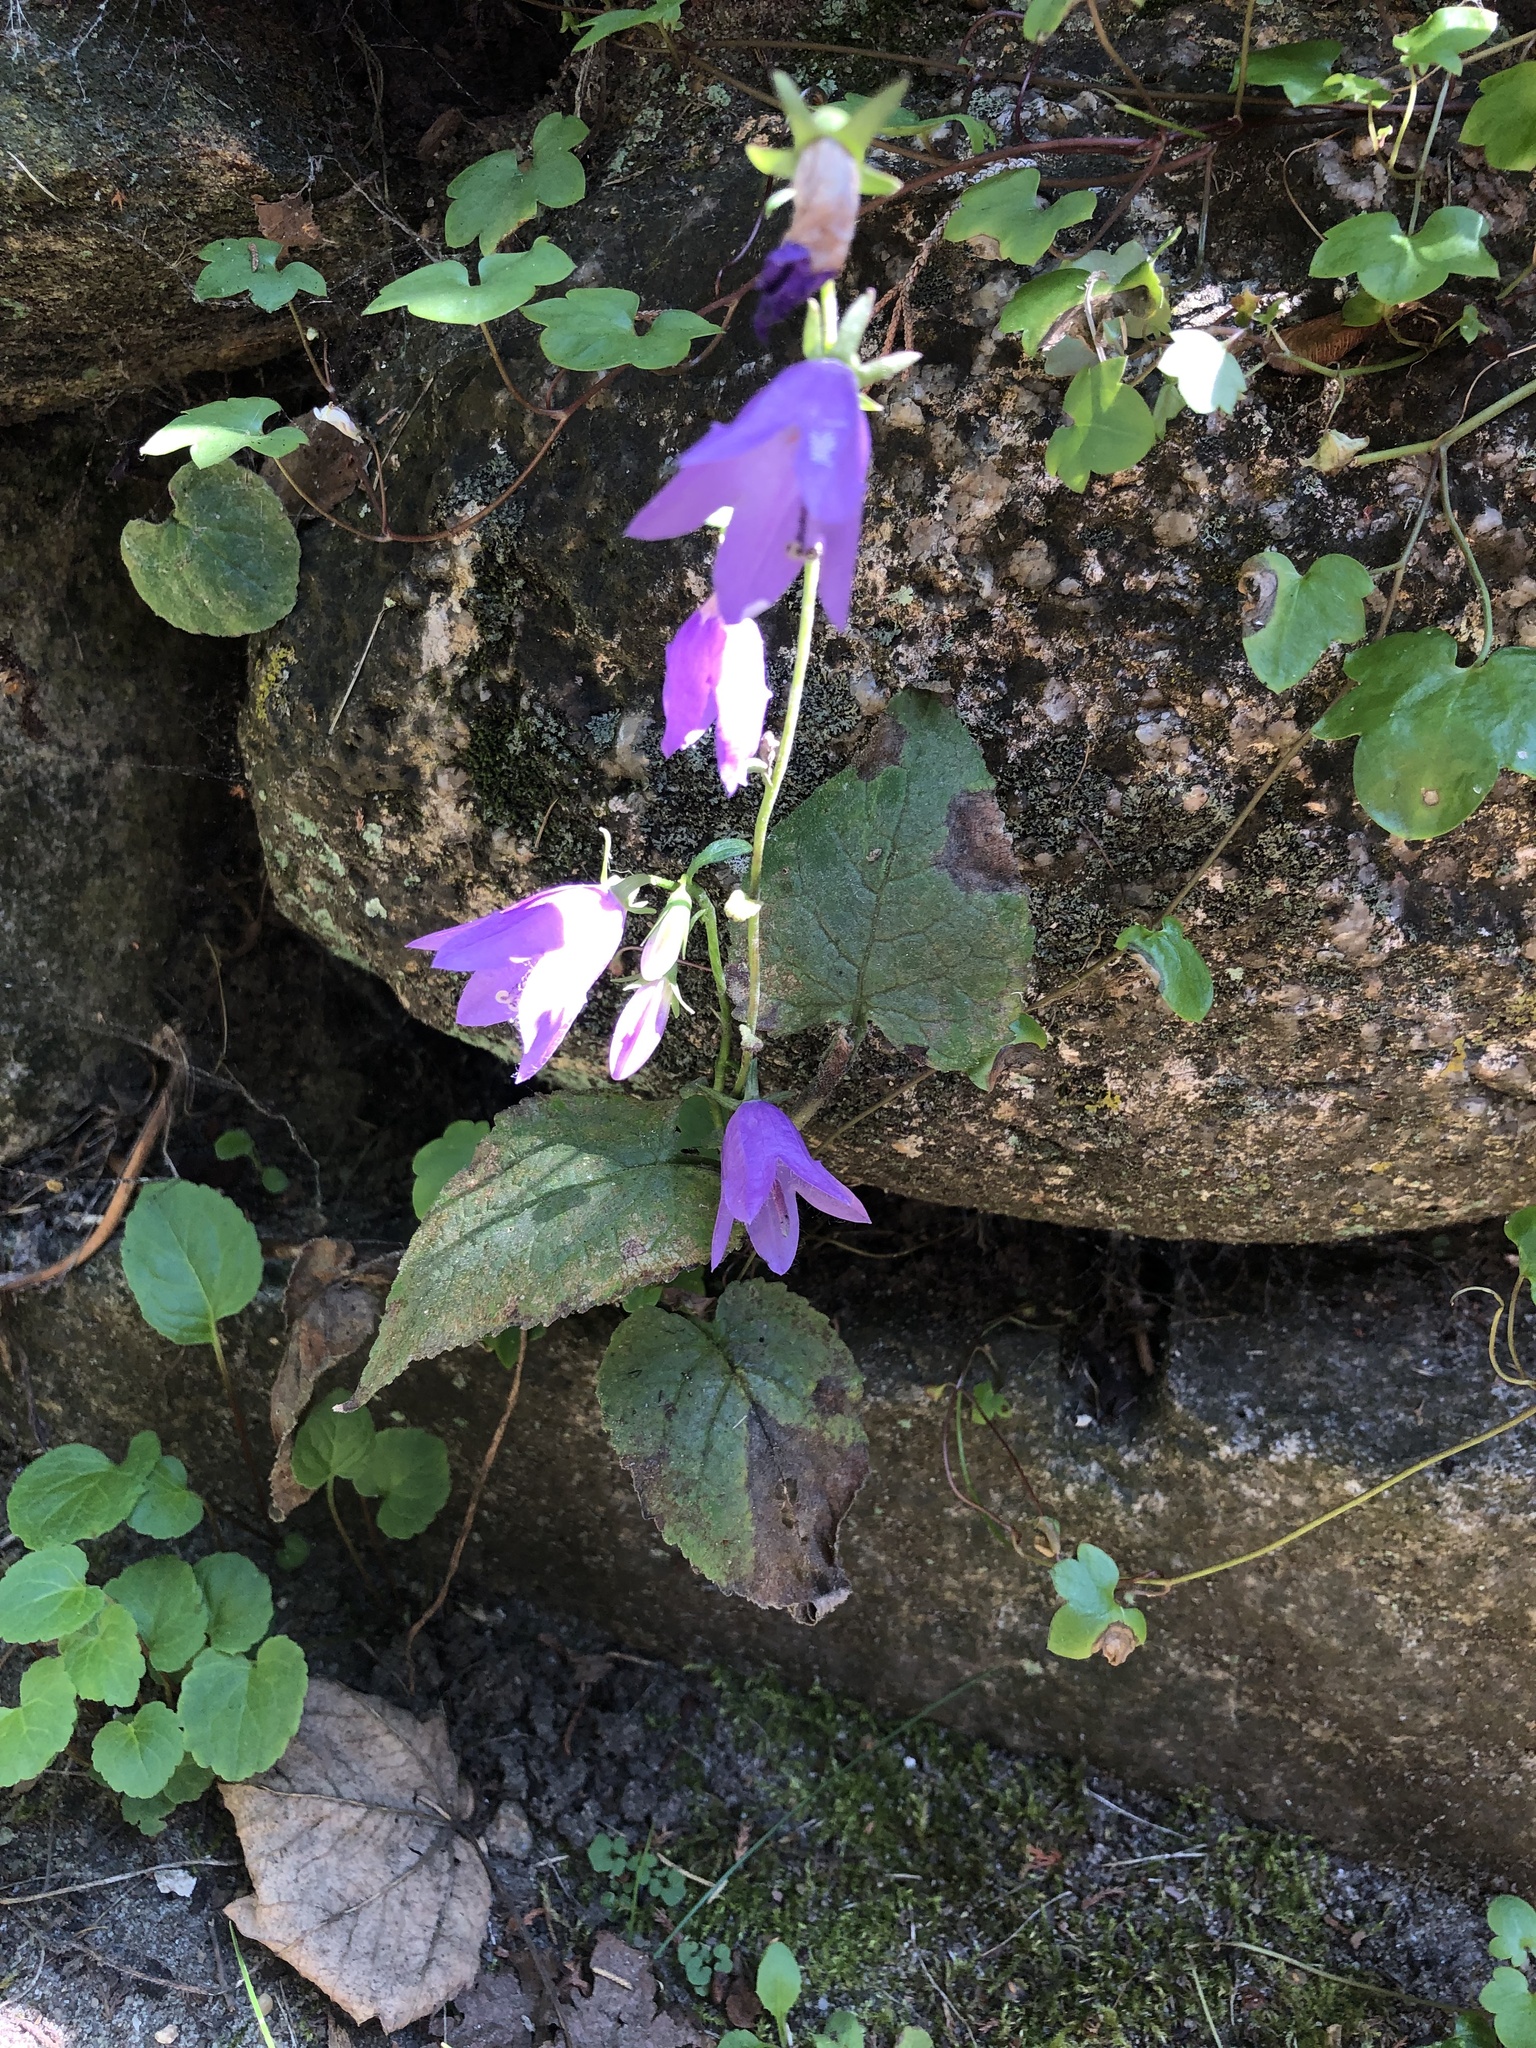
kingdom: Plantae
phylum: Tracheophyta
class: Magnoliopsida
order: Asterales
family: Campanulaceae
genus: Campanula
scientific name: Campanula rapunculoides
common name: Creeping bellflower
